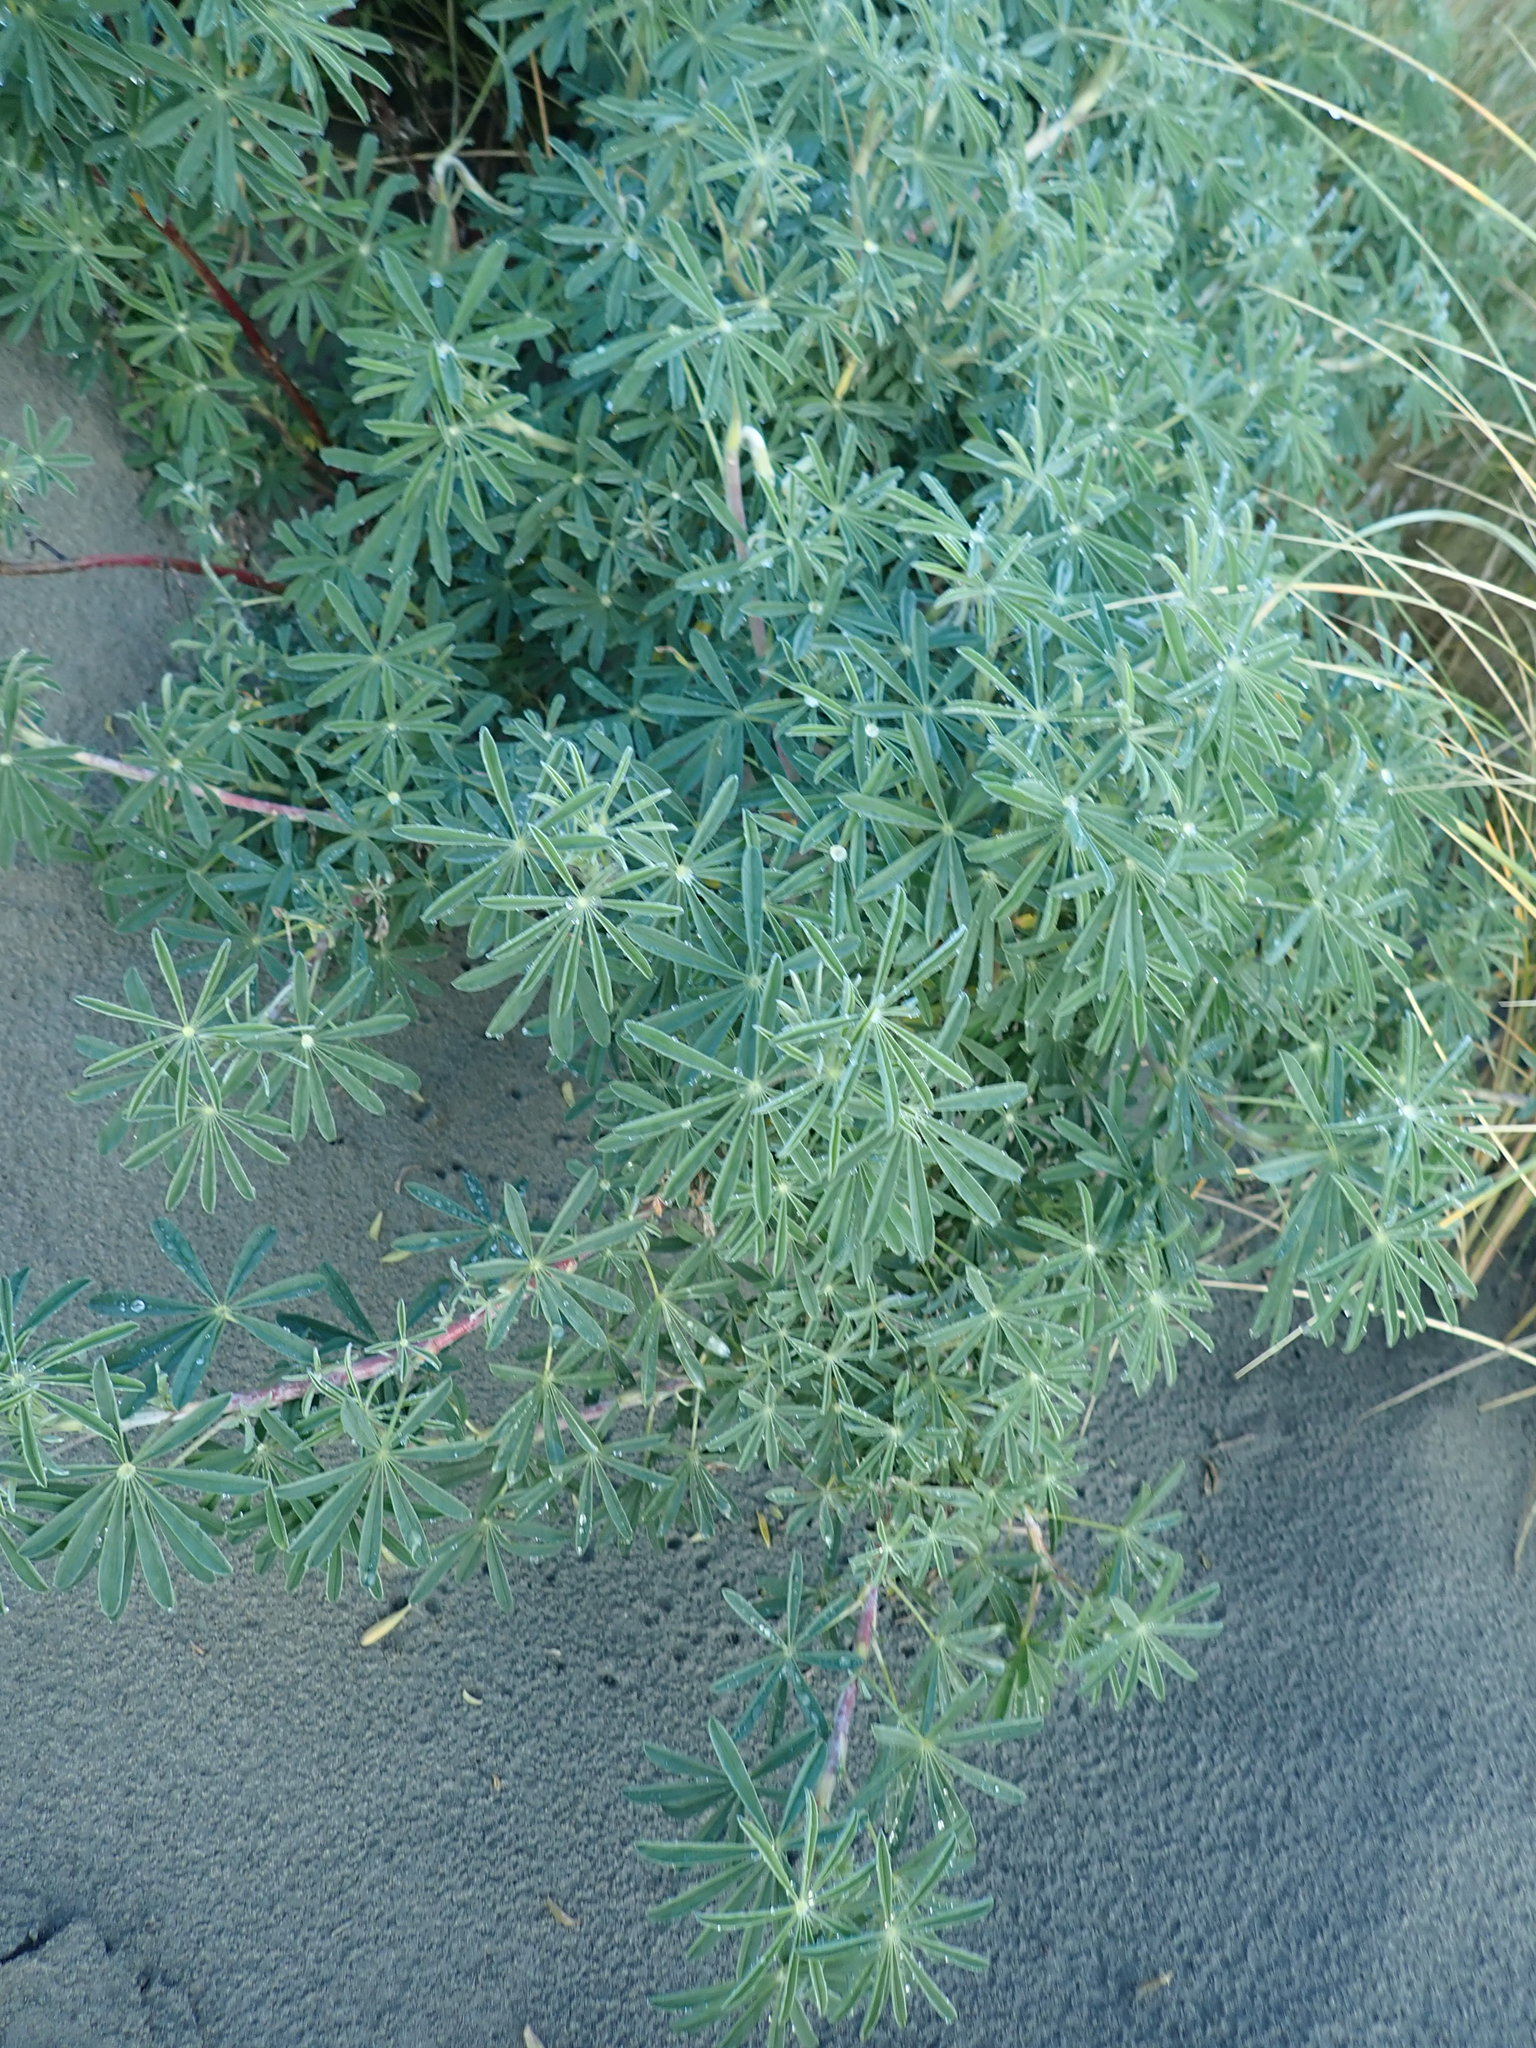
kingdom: Plantae
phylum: Tracheophyta
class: Magnoliopsida
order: Fabales
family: Fabaceae
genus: Lupinus
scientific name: Lupinus arboreus
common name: Yellow bush lupine
